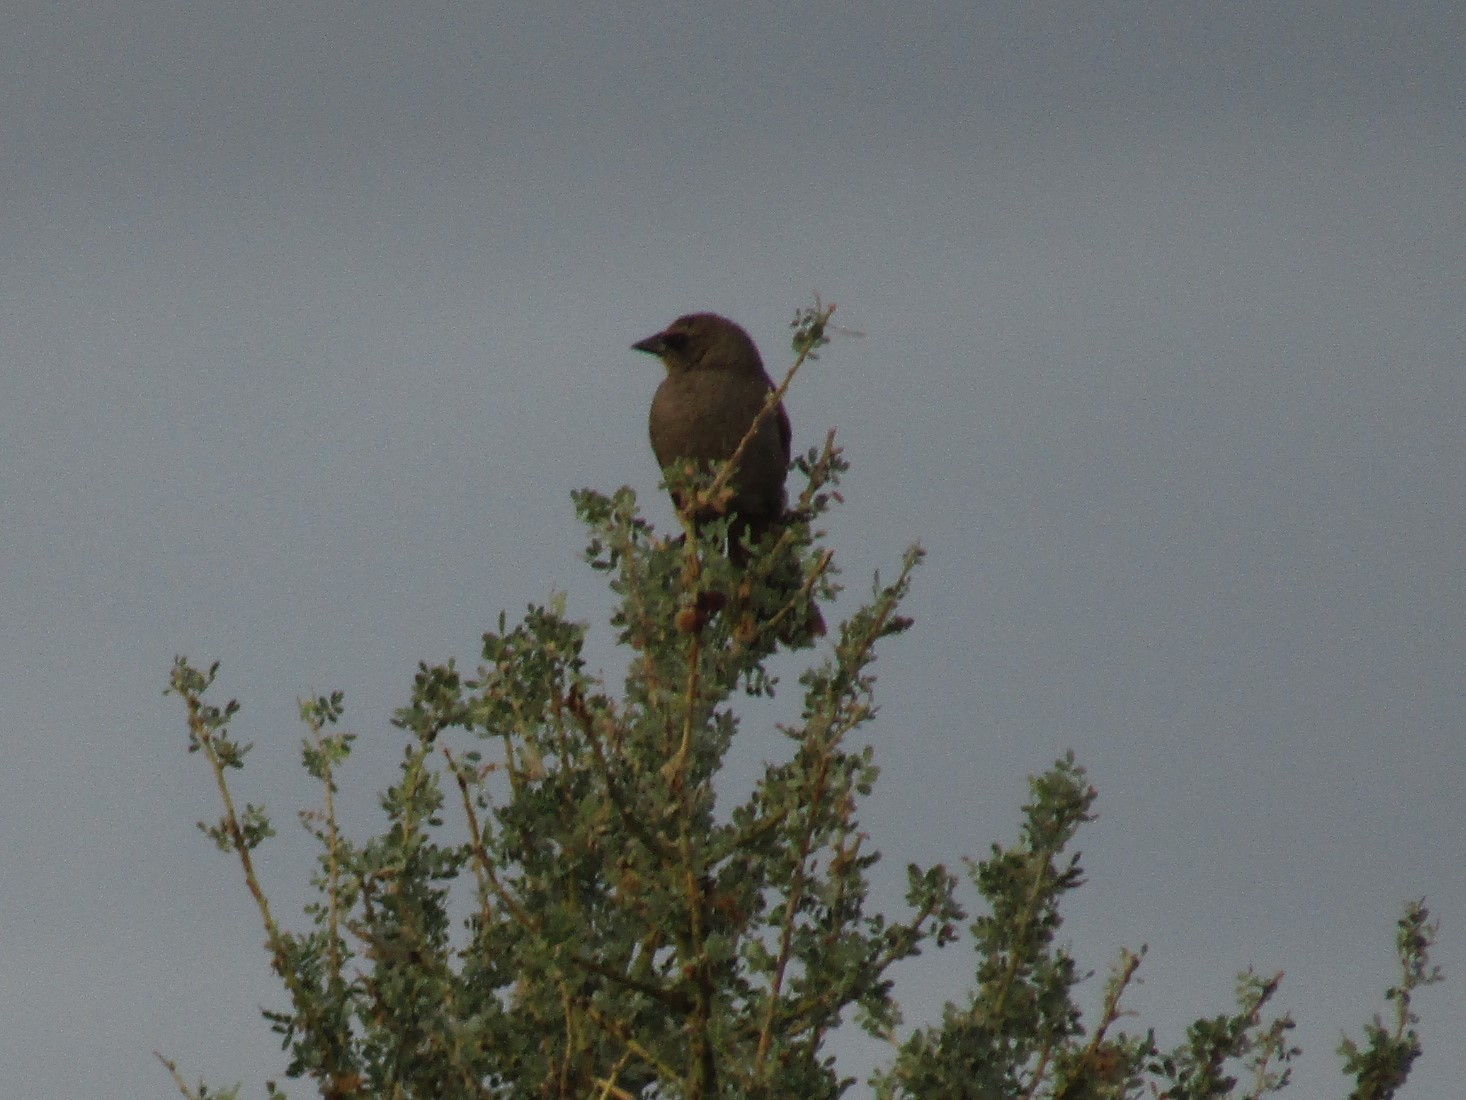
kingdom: Animalia
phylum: Chordata
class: Aves
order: Passeriformes
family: Icteridae
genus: Agelaioides
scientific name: Agelaioides badius
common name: Baywing
